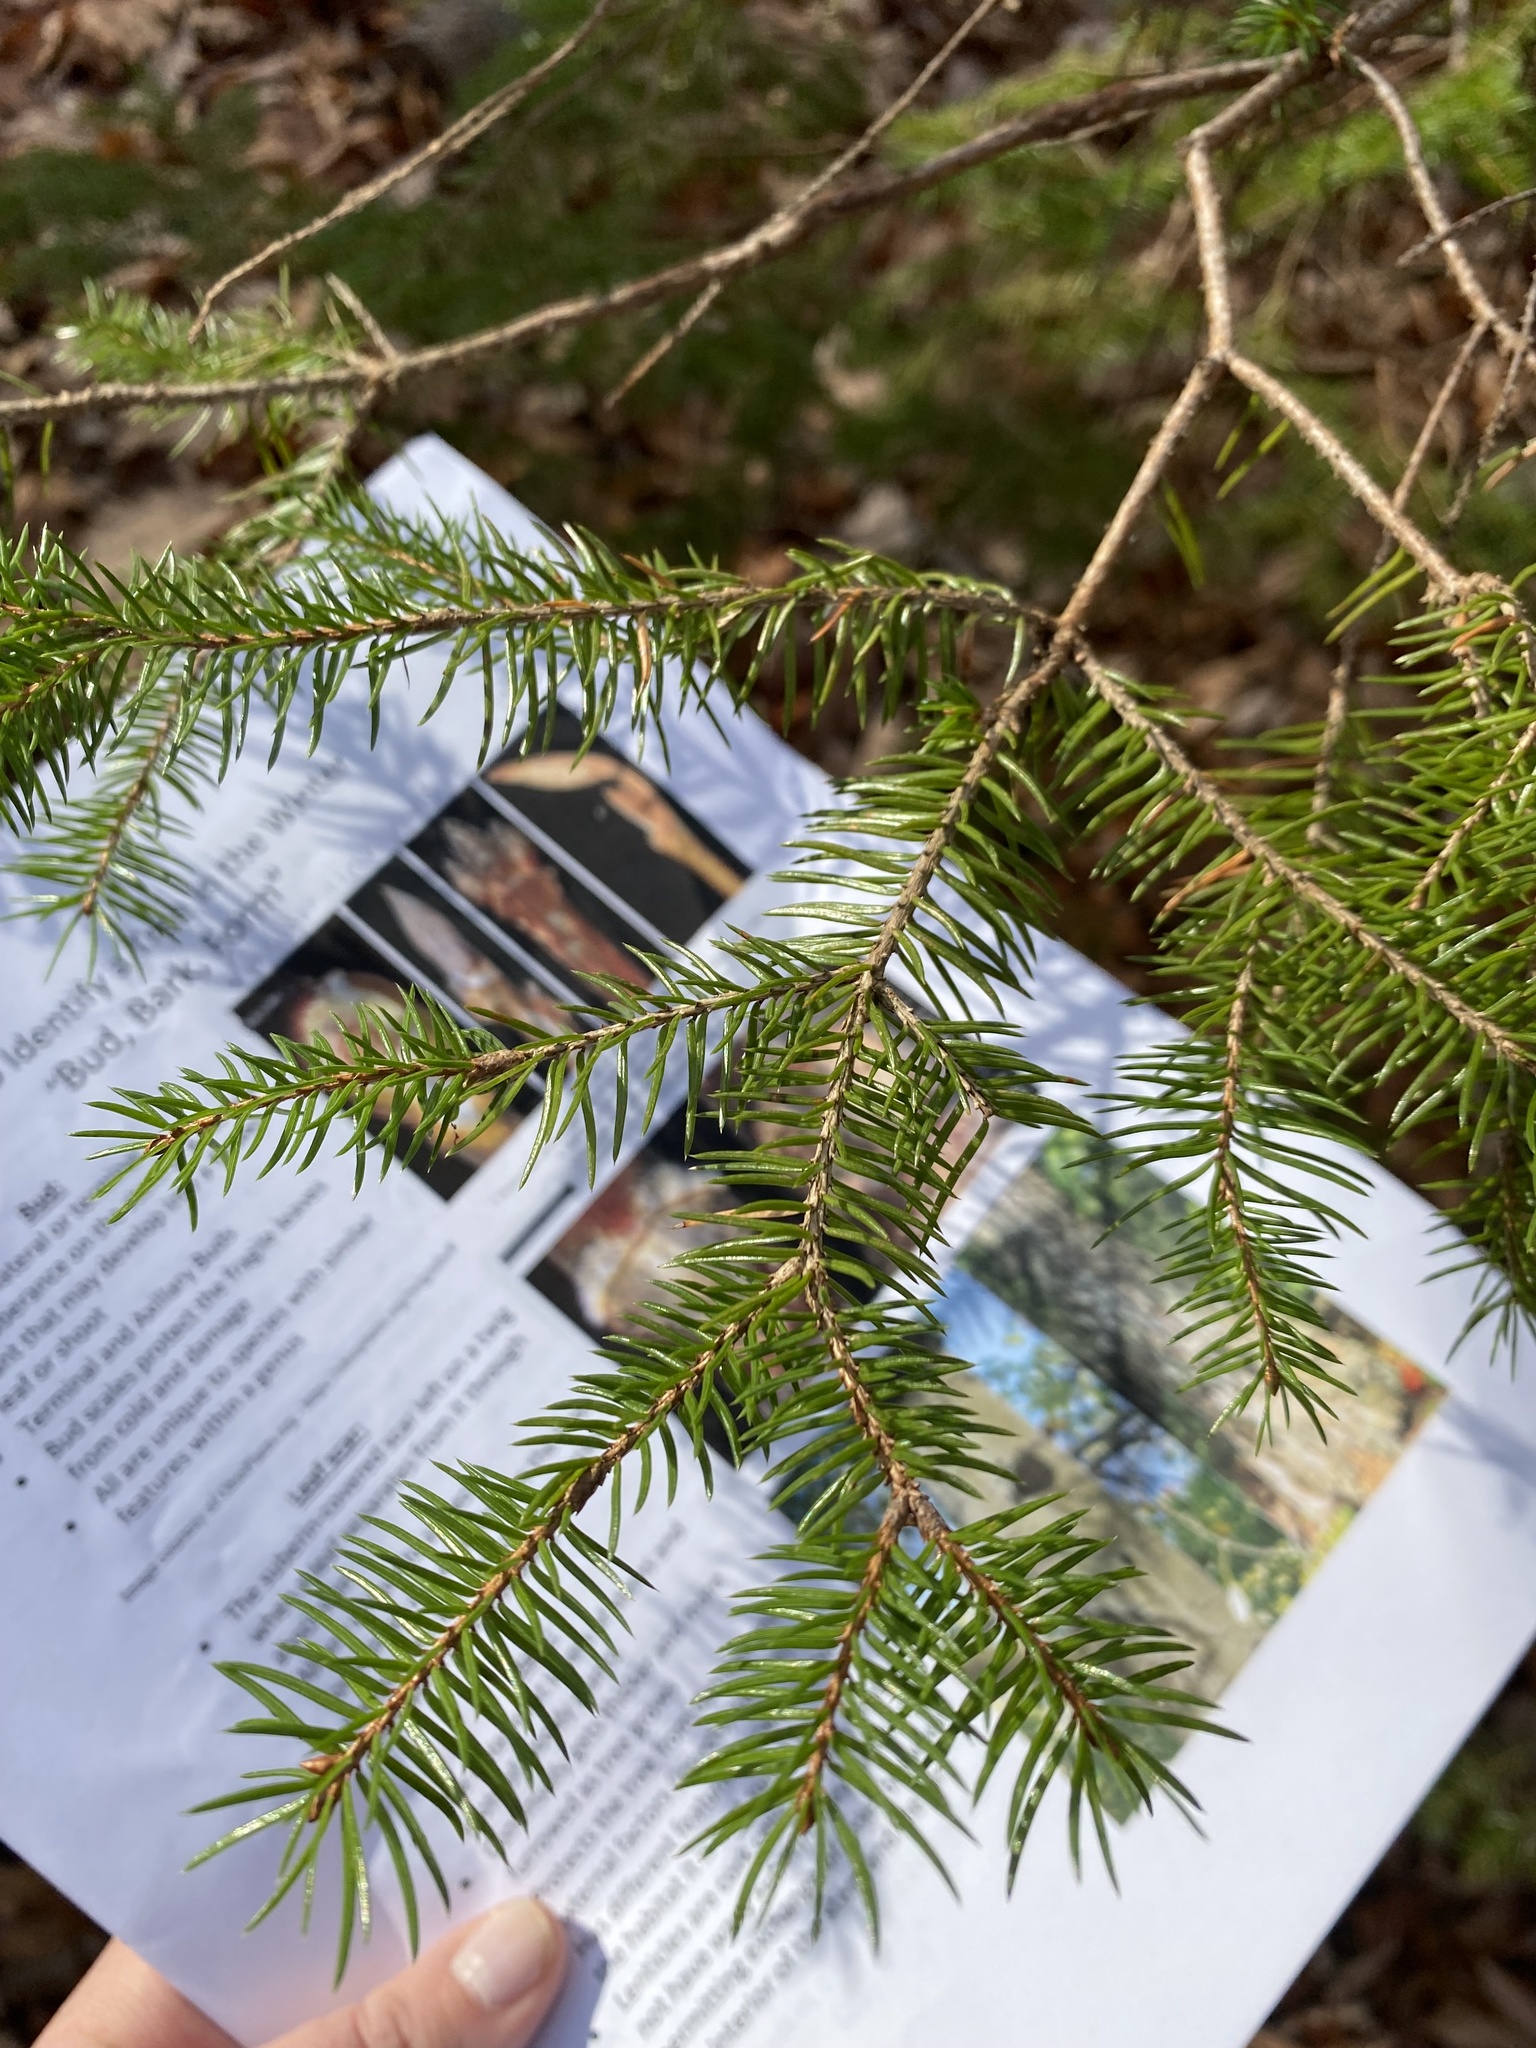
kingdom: Plantae
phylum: Tracheophyta
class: Pinopsida
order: Pinales
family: Pinaceae
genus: Picea
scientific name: Picea abies
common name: Norway spruce
